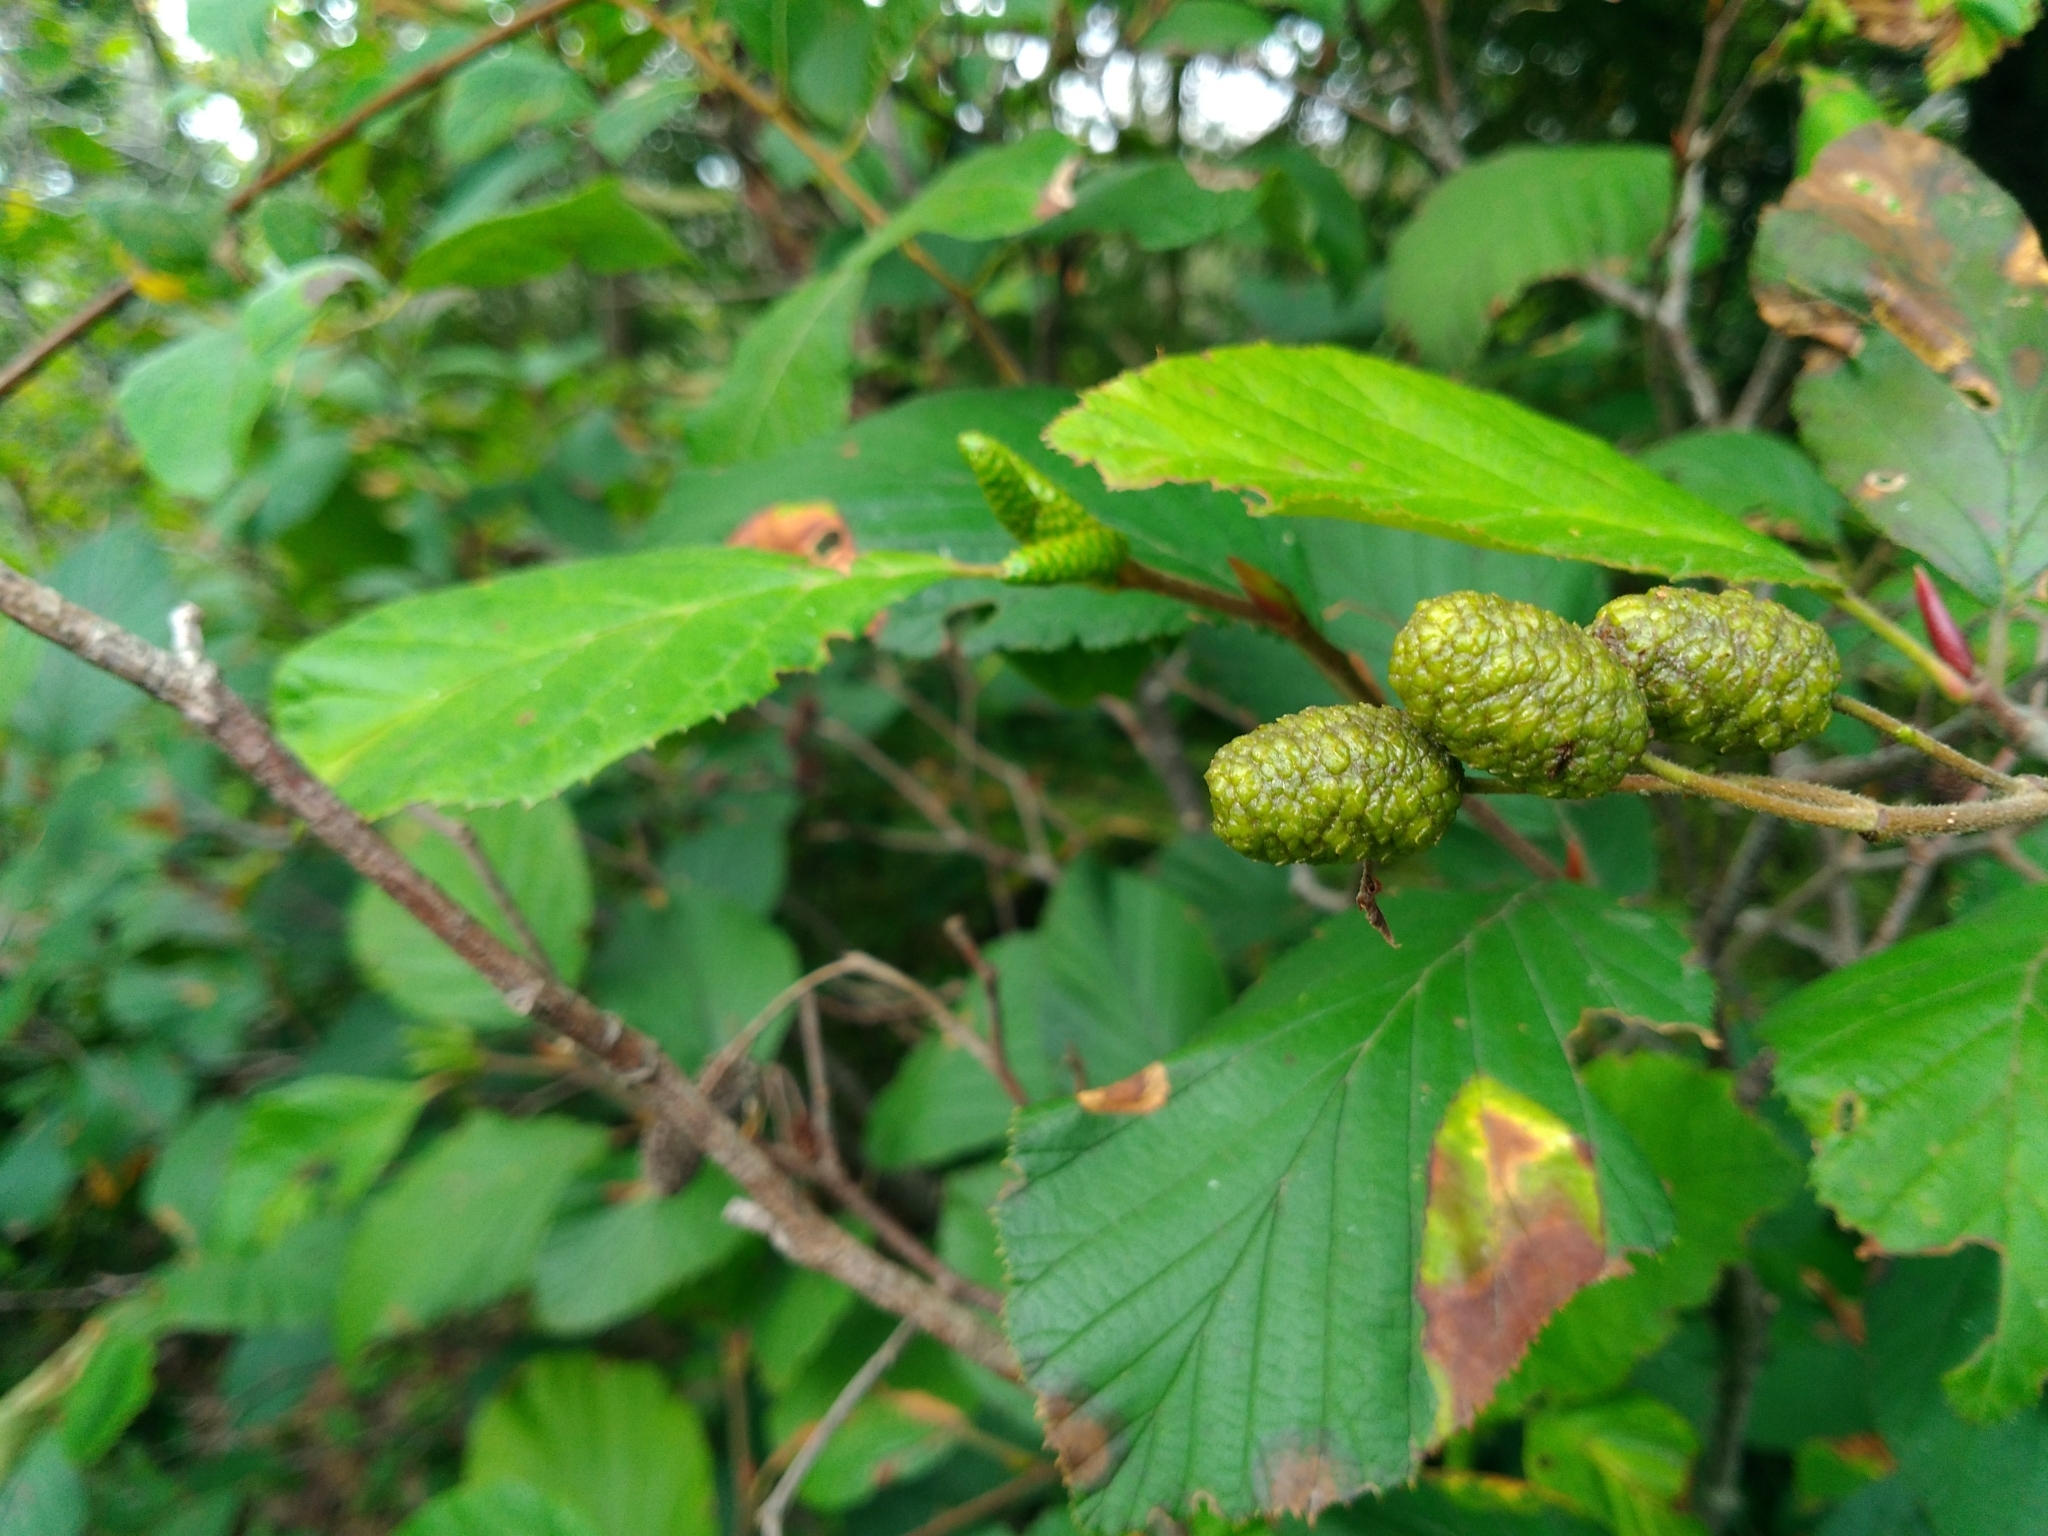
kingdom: Plantae
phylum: Tracheophyta
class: Magnoliopsida
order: Fagales
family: Betulaceae
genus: Alnus
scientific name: Alnus alnobetula
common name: Green alder
